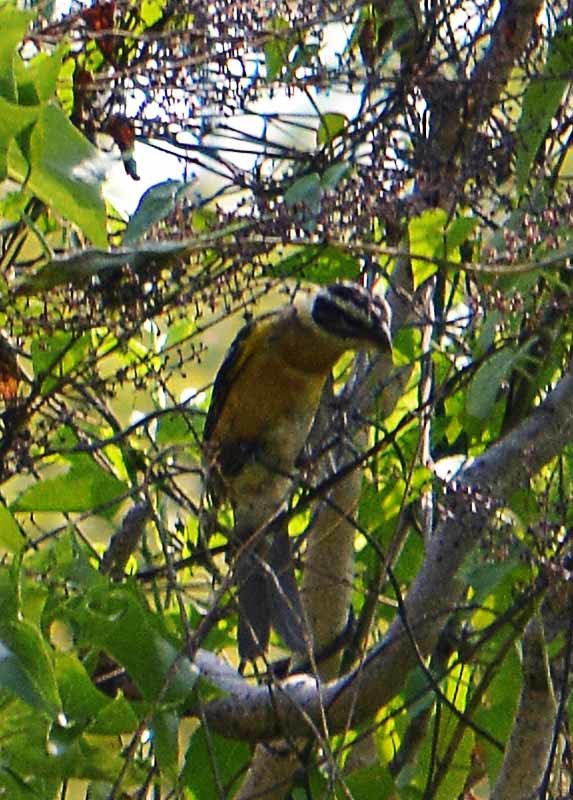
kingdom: Animalia
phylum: Chordata
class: Aves
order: Passeriformes
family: Cardinalidae
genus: Pheucticus
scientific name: Pheucticus melanocephalus
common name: Black-headed grosbeak
